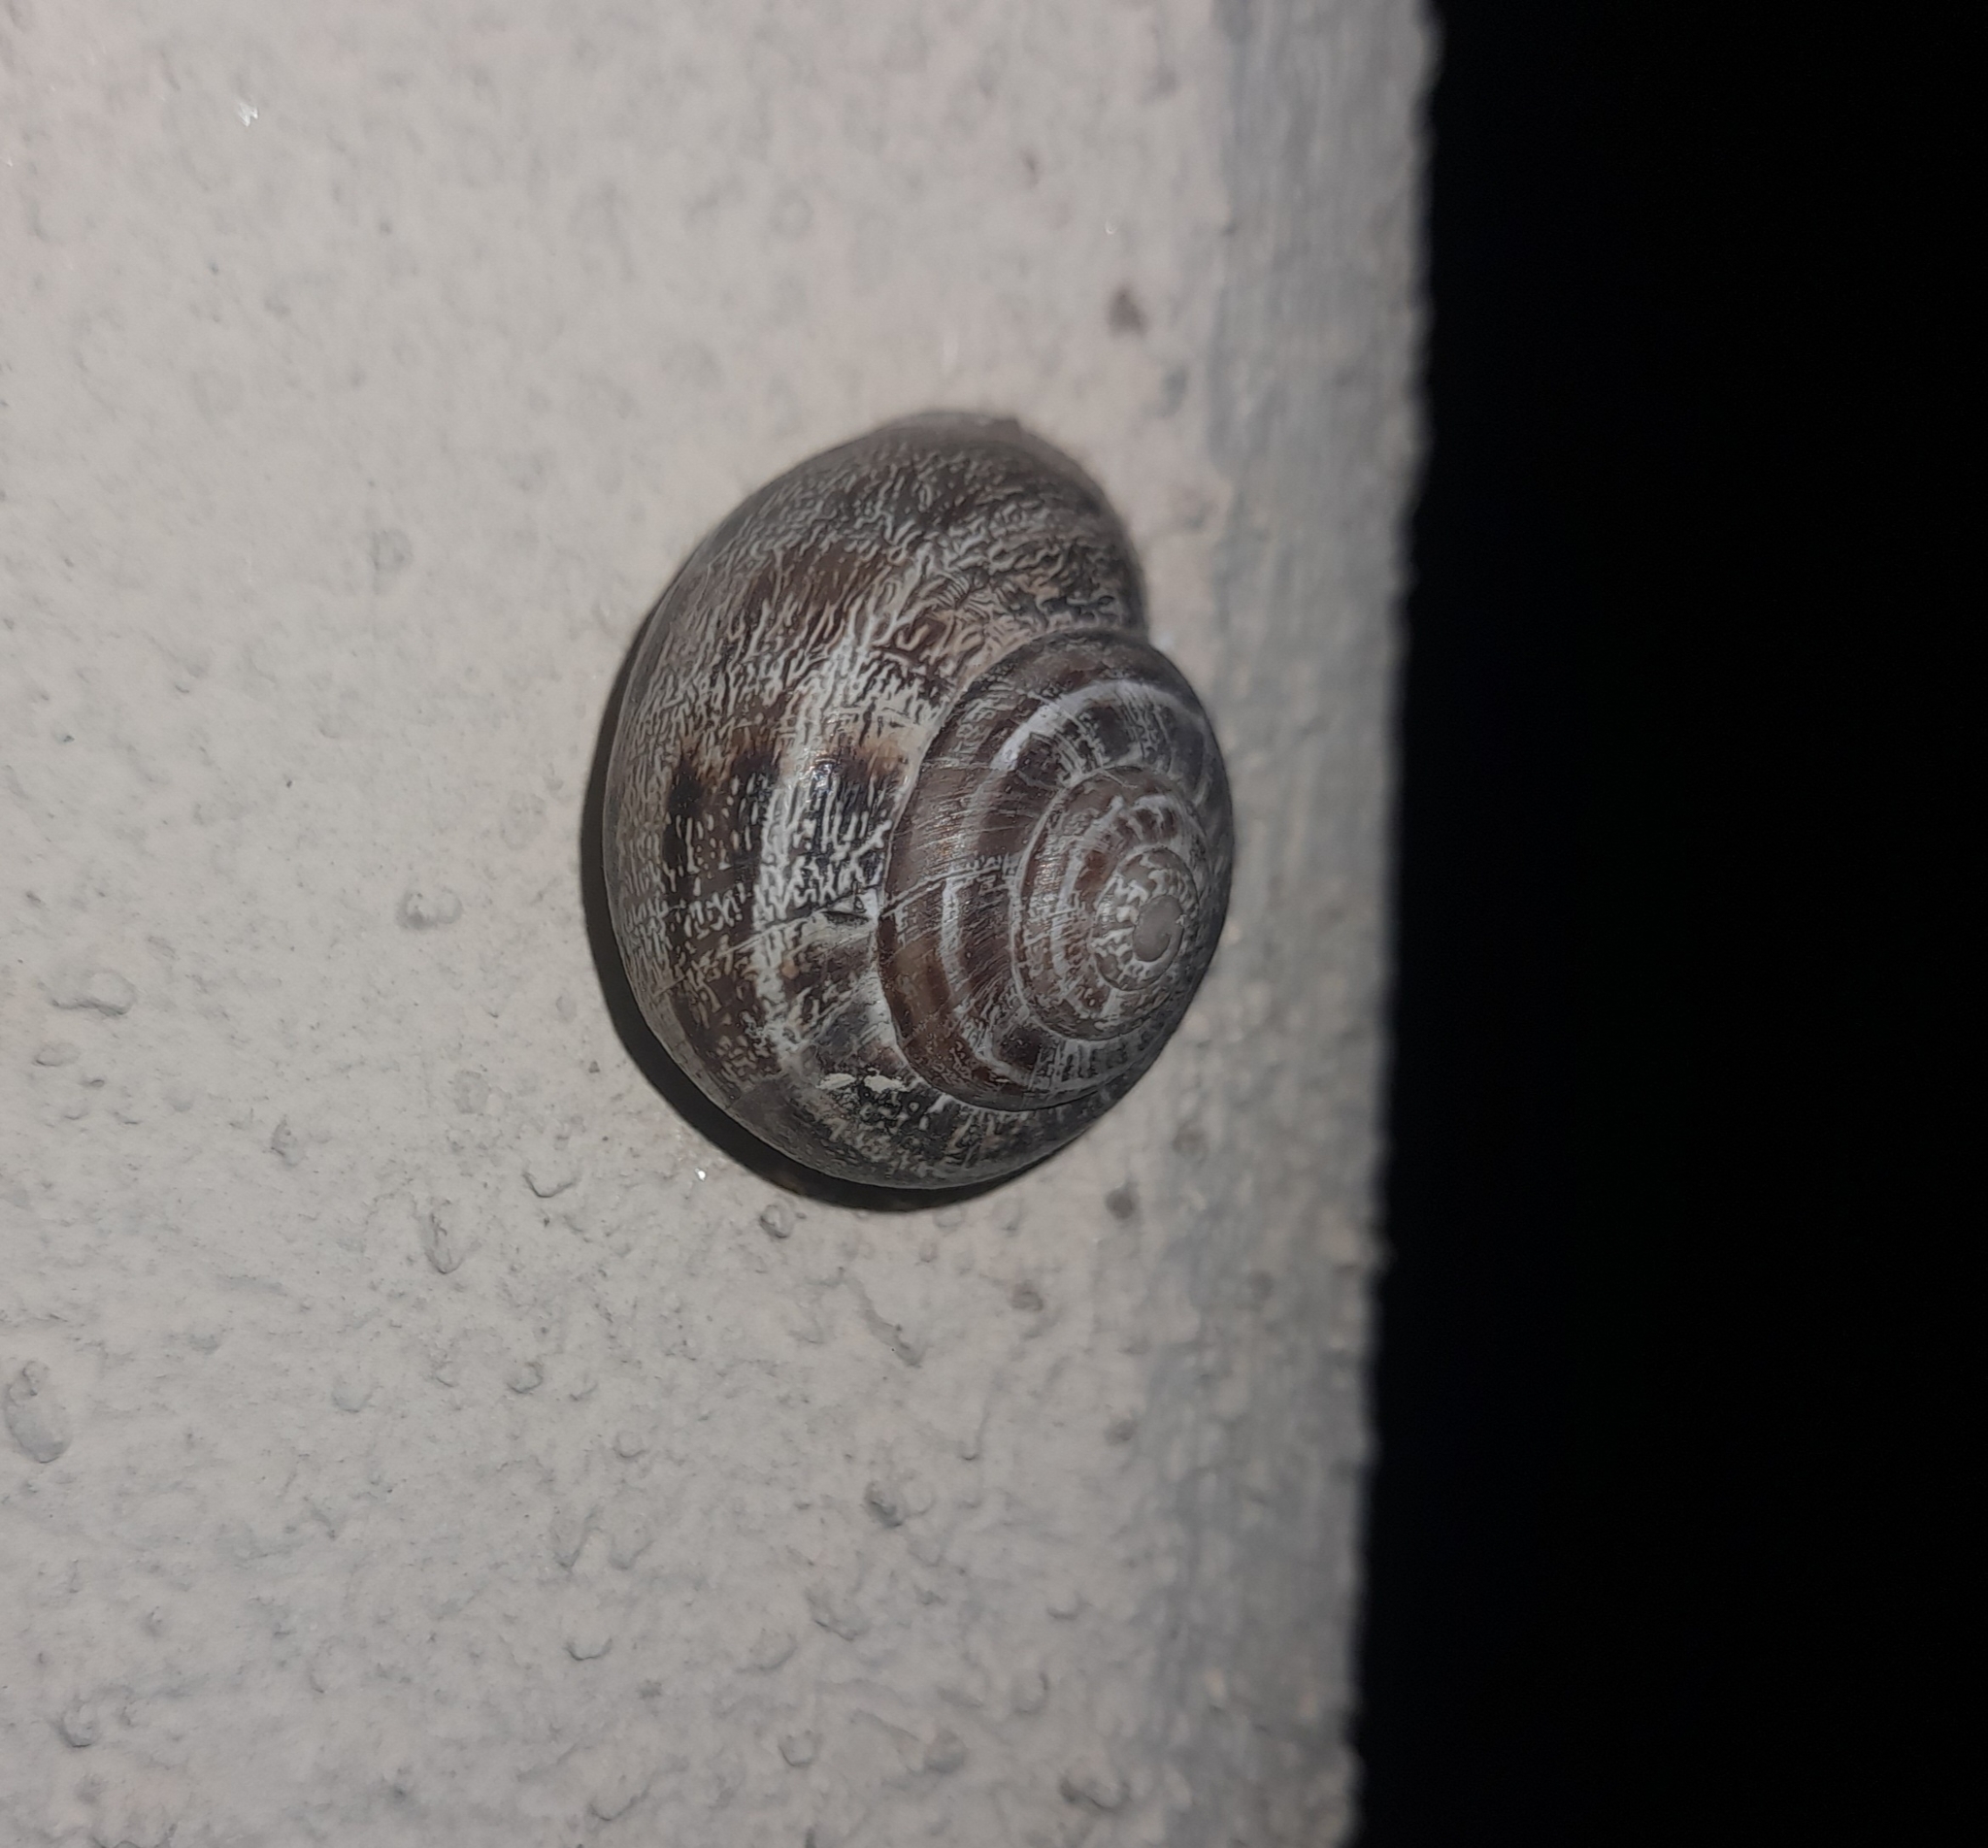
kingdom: Animalia
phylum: Mollusca
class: Gastropoda
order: Stylommatophora
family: Helicidae
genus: Eobania
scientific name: Eobania vermiculata
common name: Chocolateband snail
